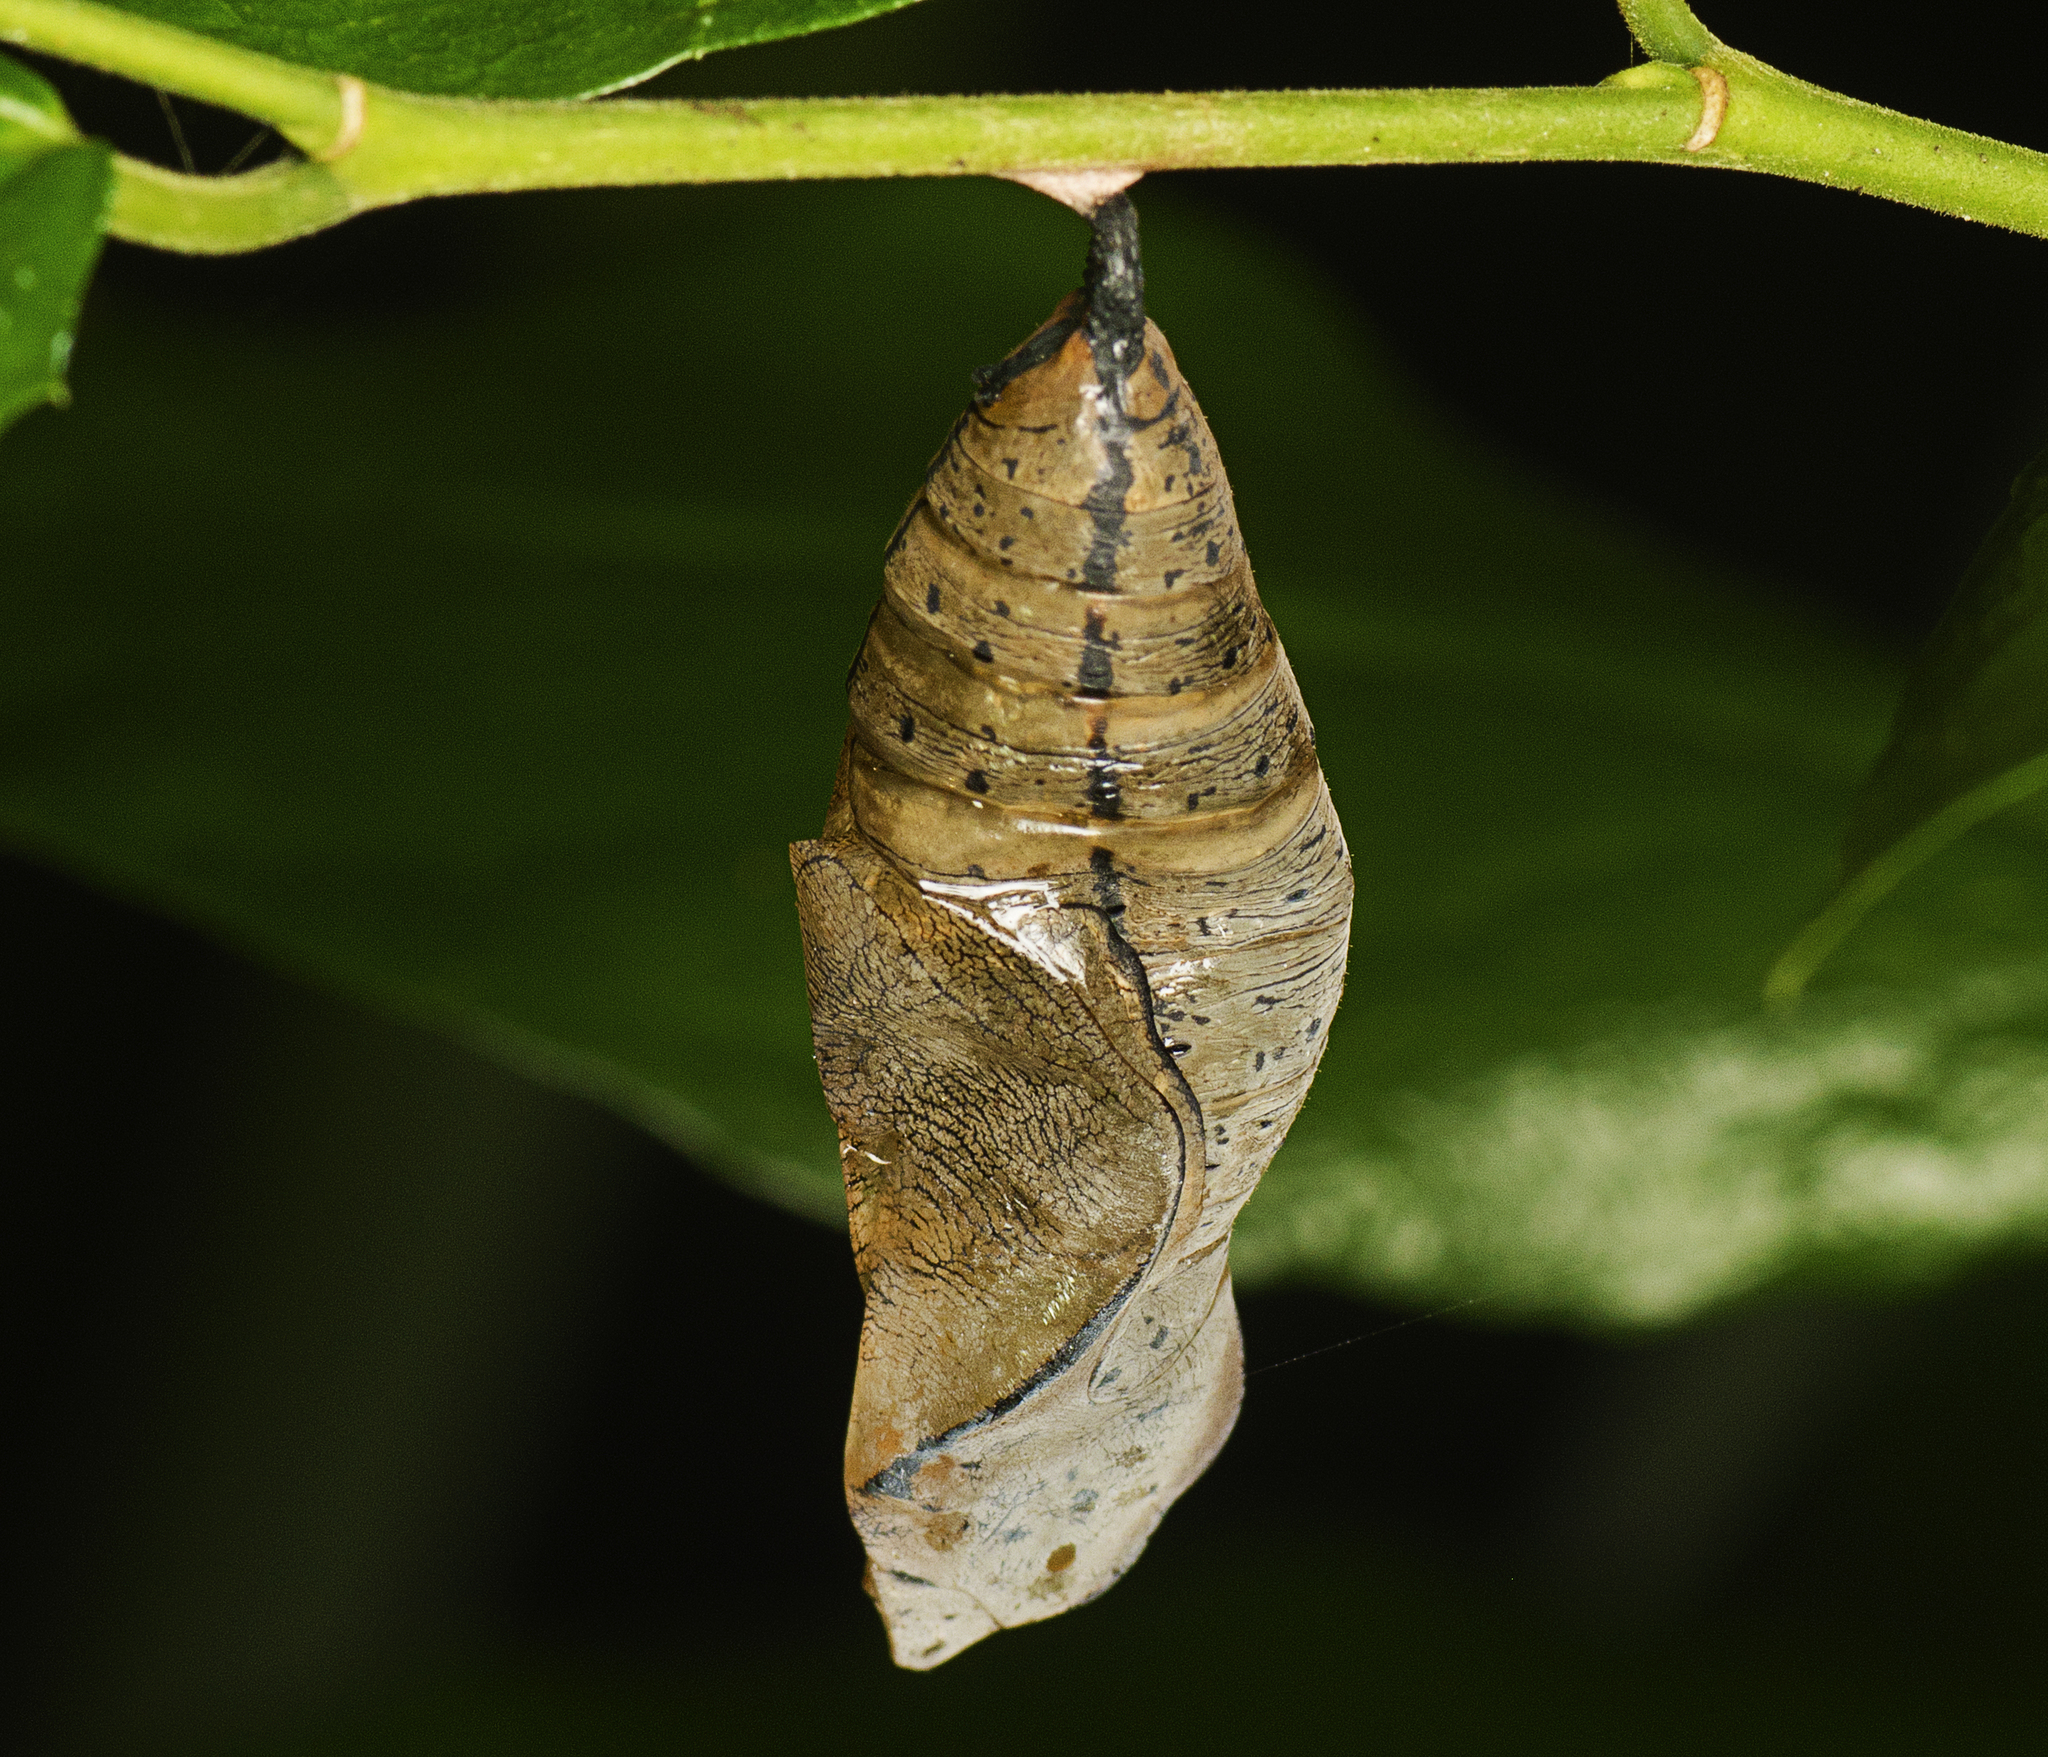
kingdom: Animalia
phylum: Arthropoda
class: Insecta
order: Lepidoptera
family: Nymphalidae
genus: Doleschallia
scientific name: Doleschallia bisaltide
